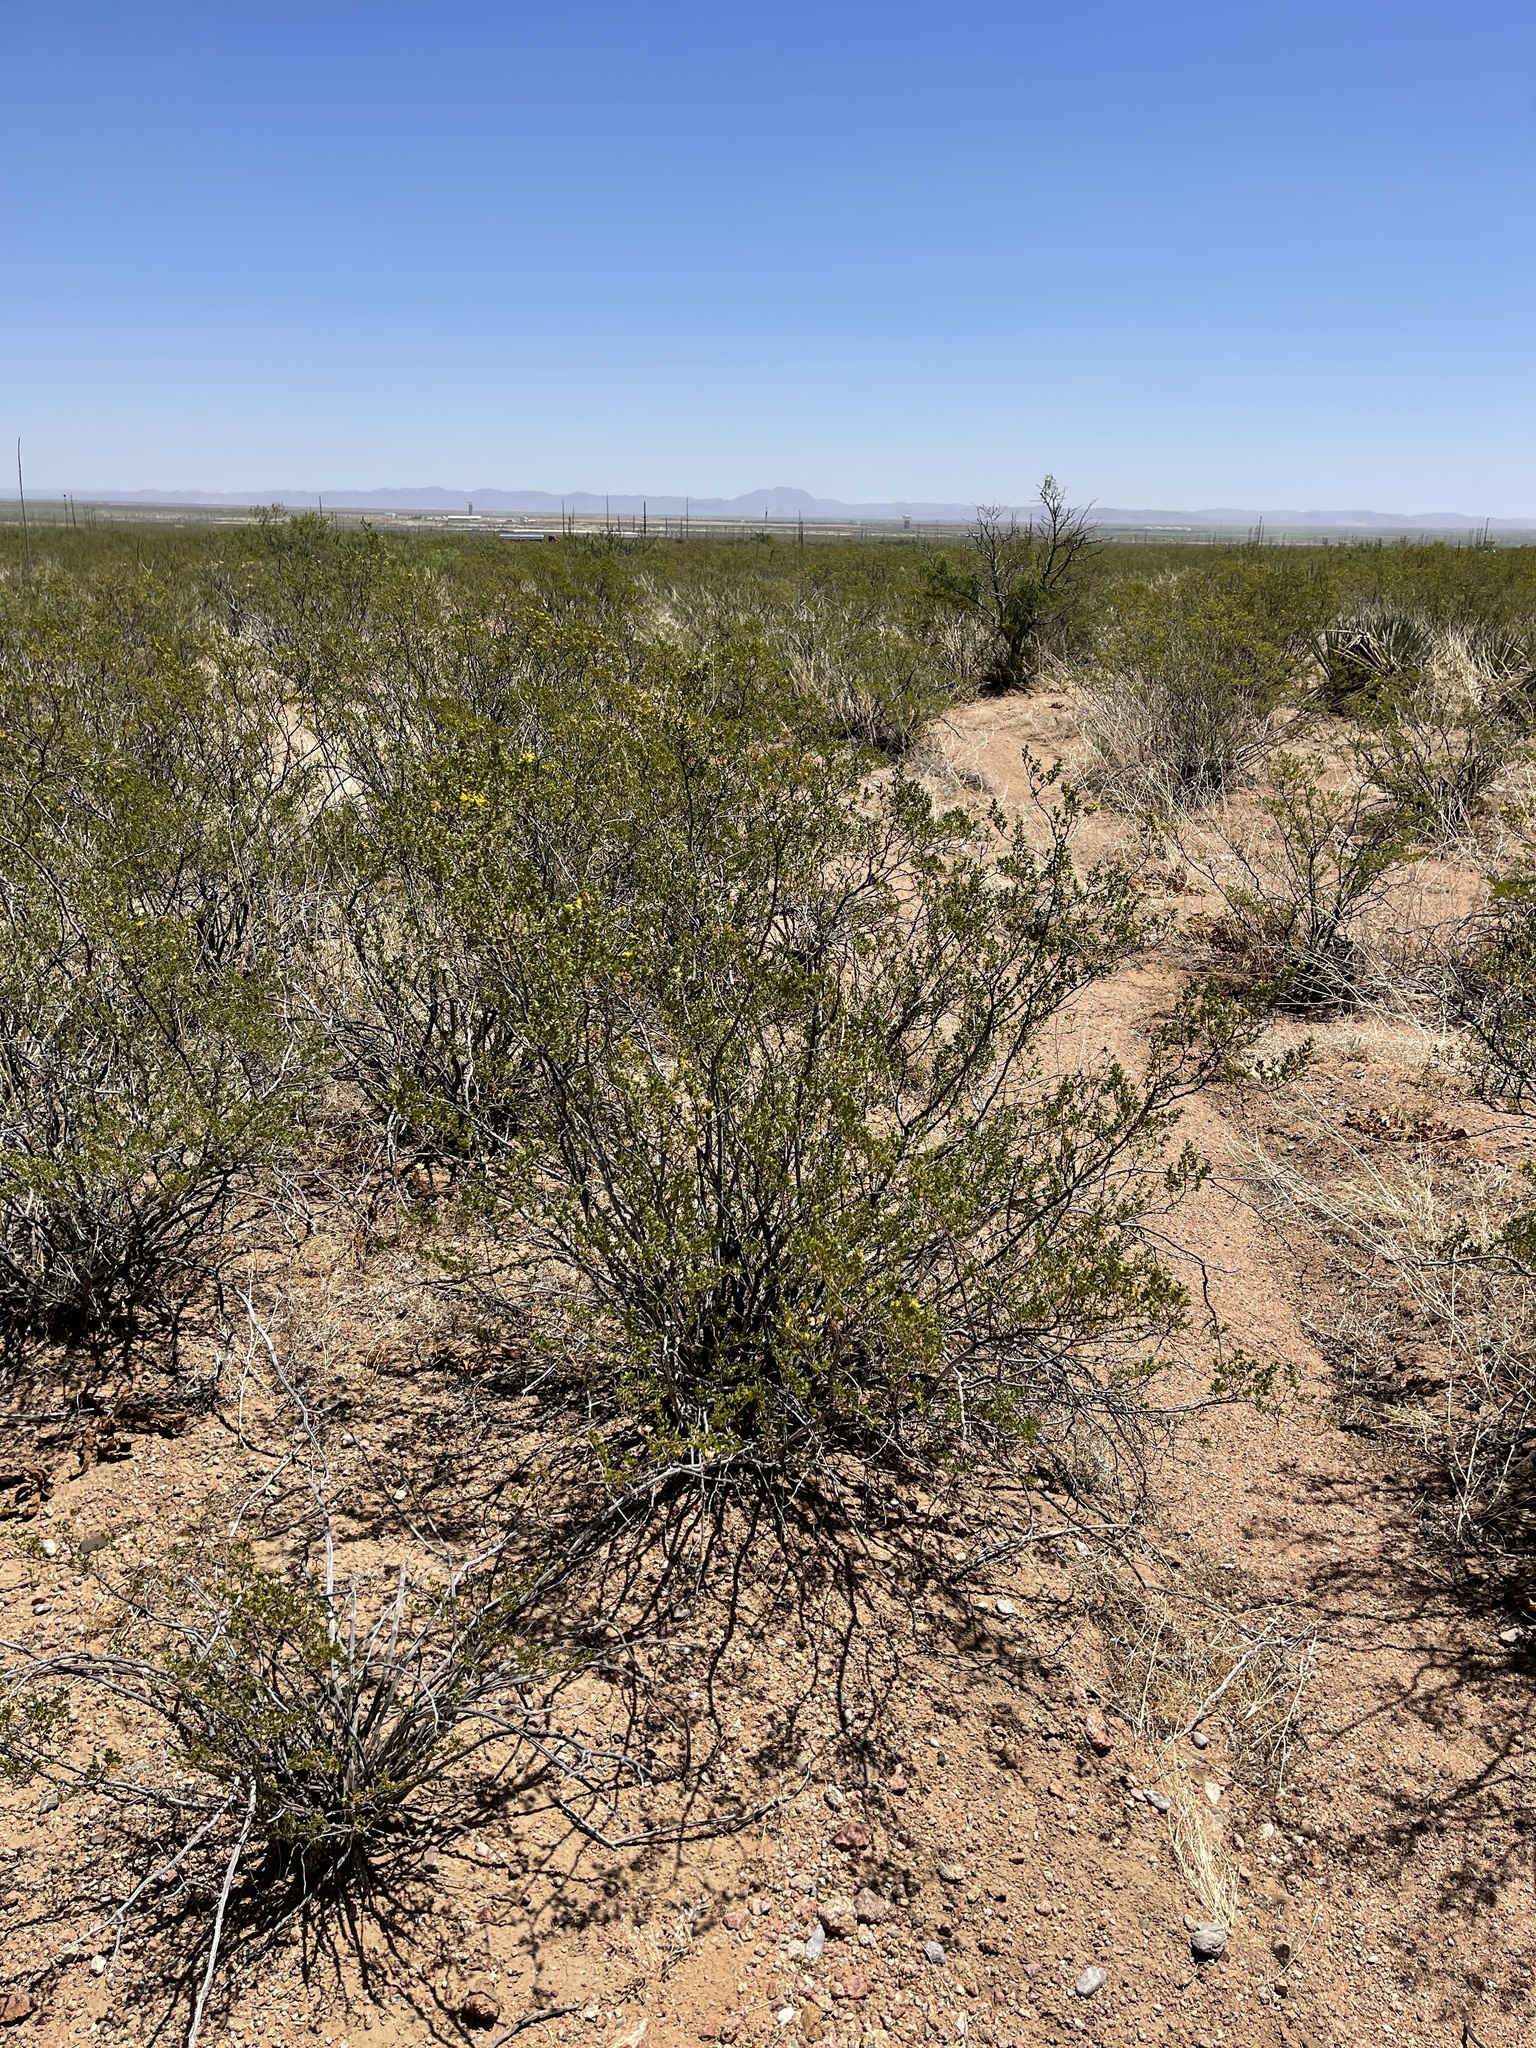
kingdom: Plantae
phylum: Tracheophyta
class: Magnoliopsida
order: Zygophyllales
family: Zygophyllaceae
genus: Larrea
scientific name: Larrea tridentata
